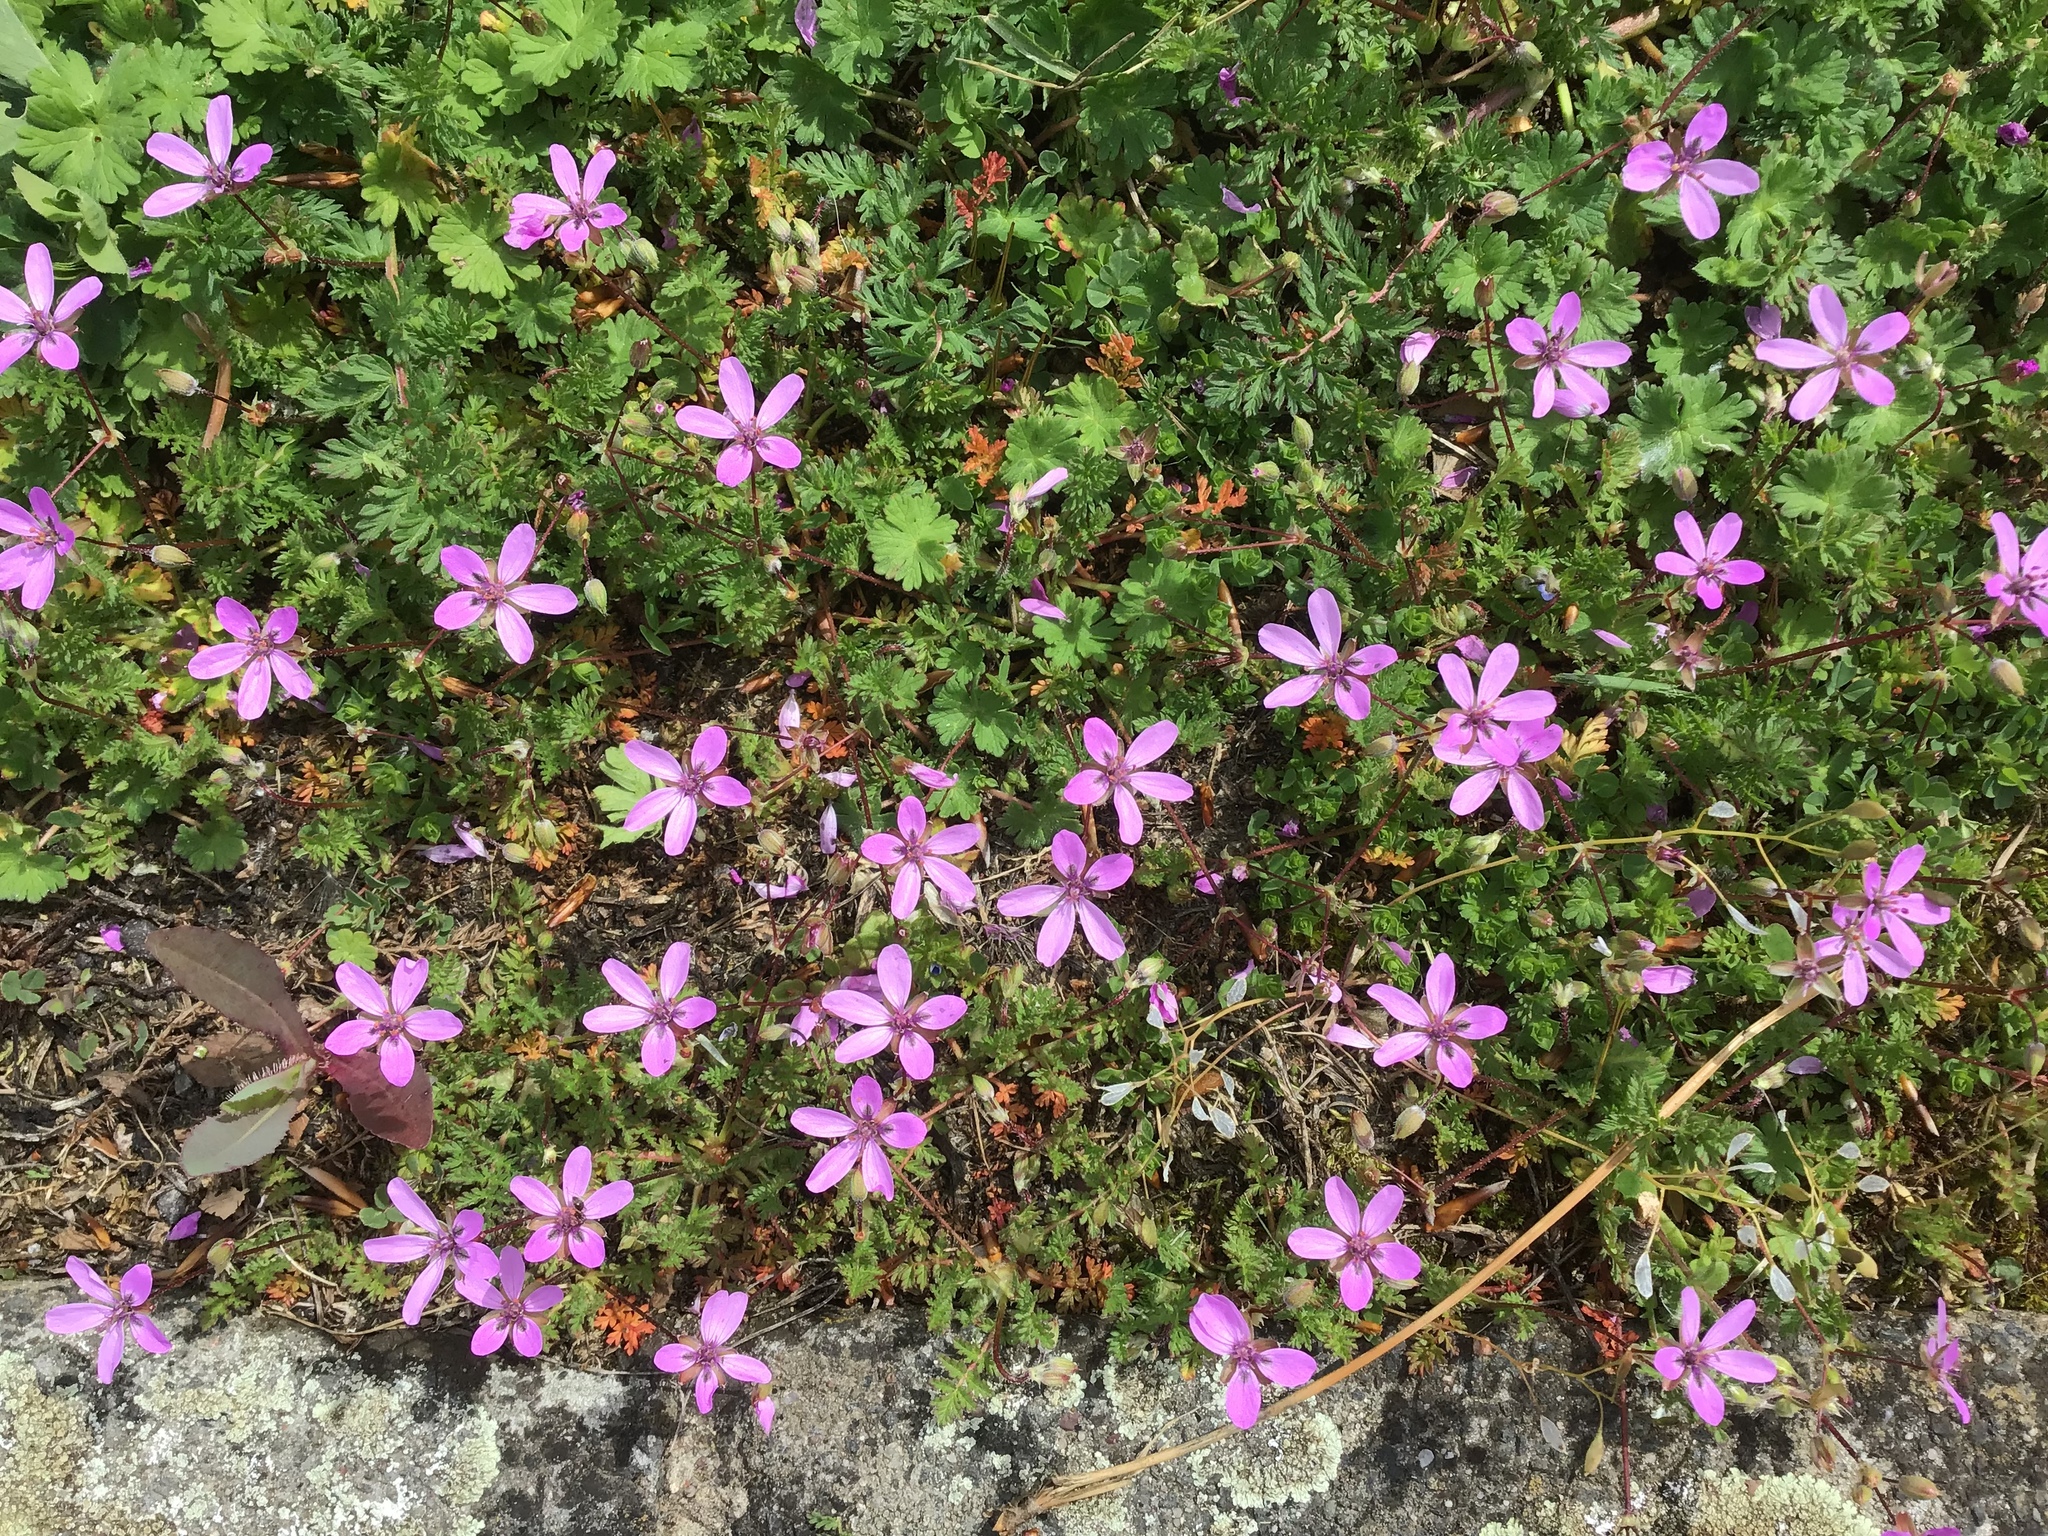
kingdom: Plantae
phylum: Tracheophyta
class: Magnoliopsida
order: Geraniales
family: Geraniaceae
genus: Erodium
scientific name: Erodium cicutarium
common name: Common stork's-bill
